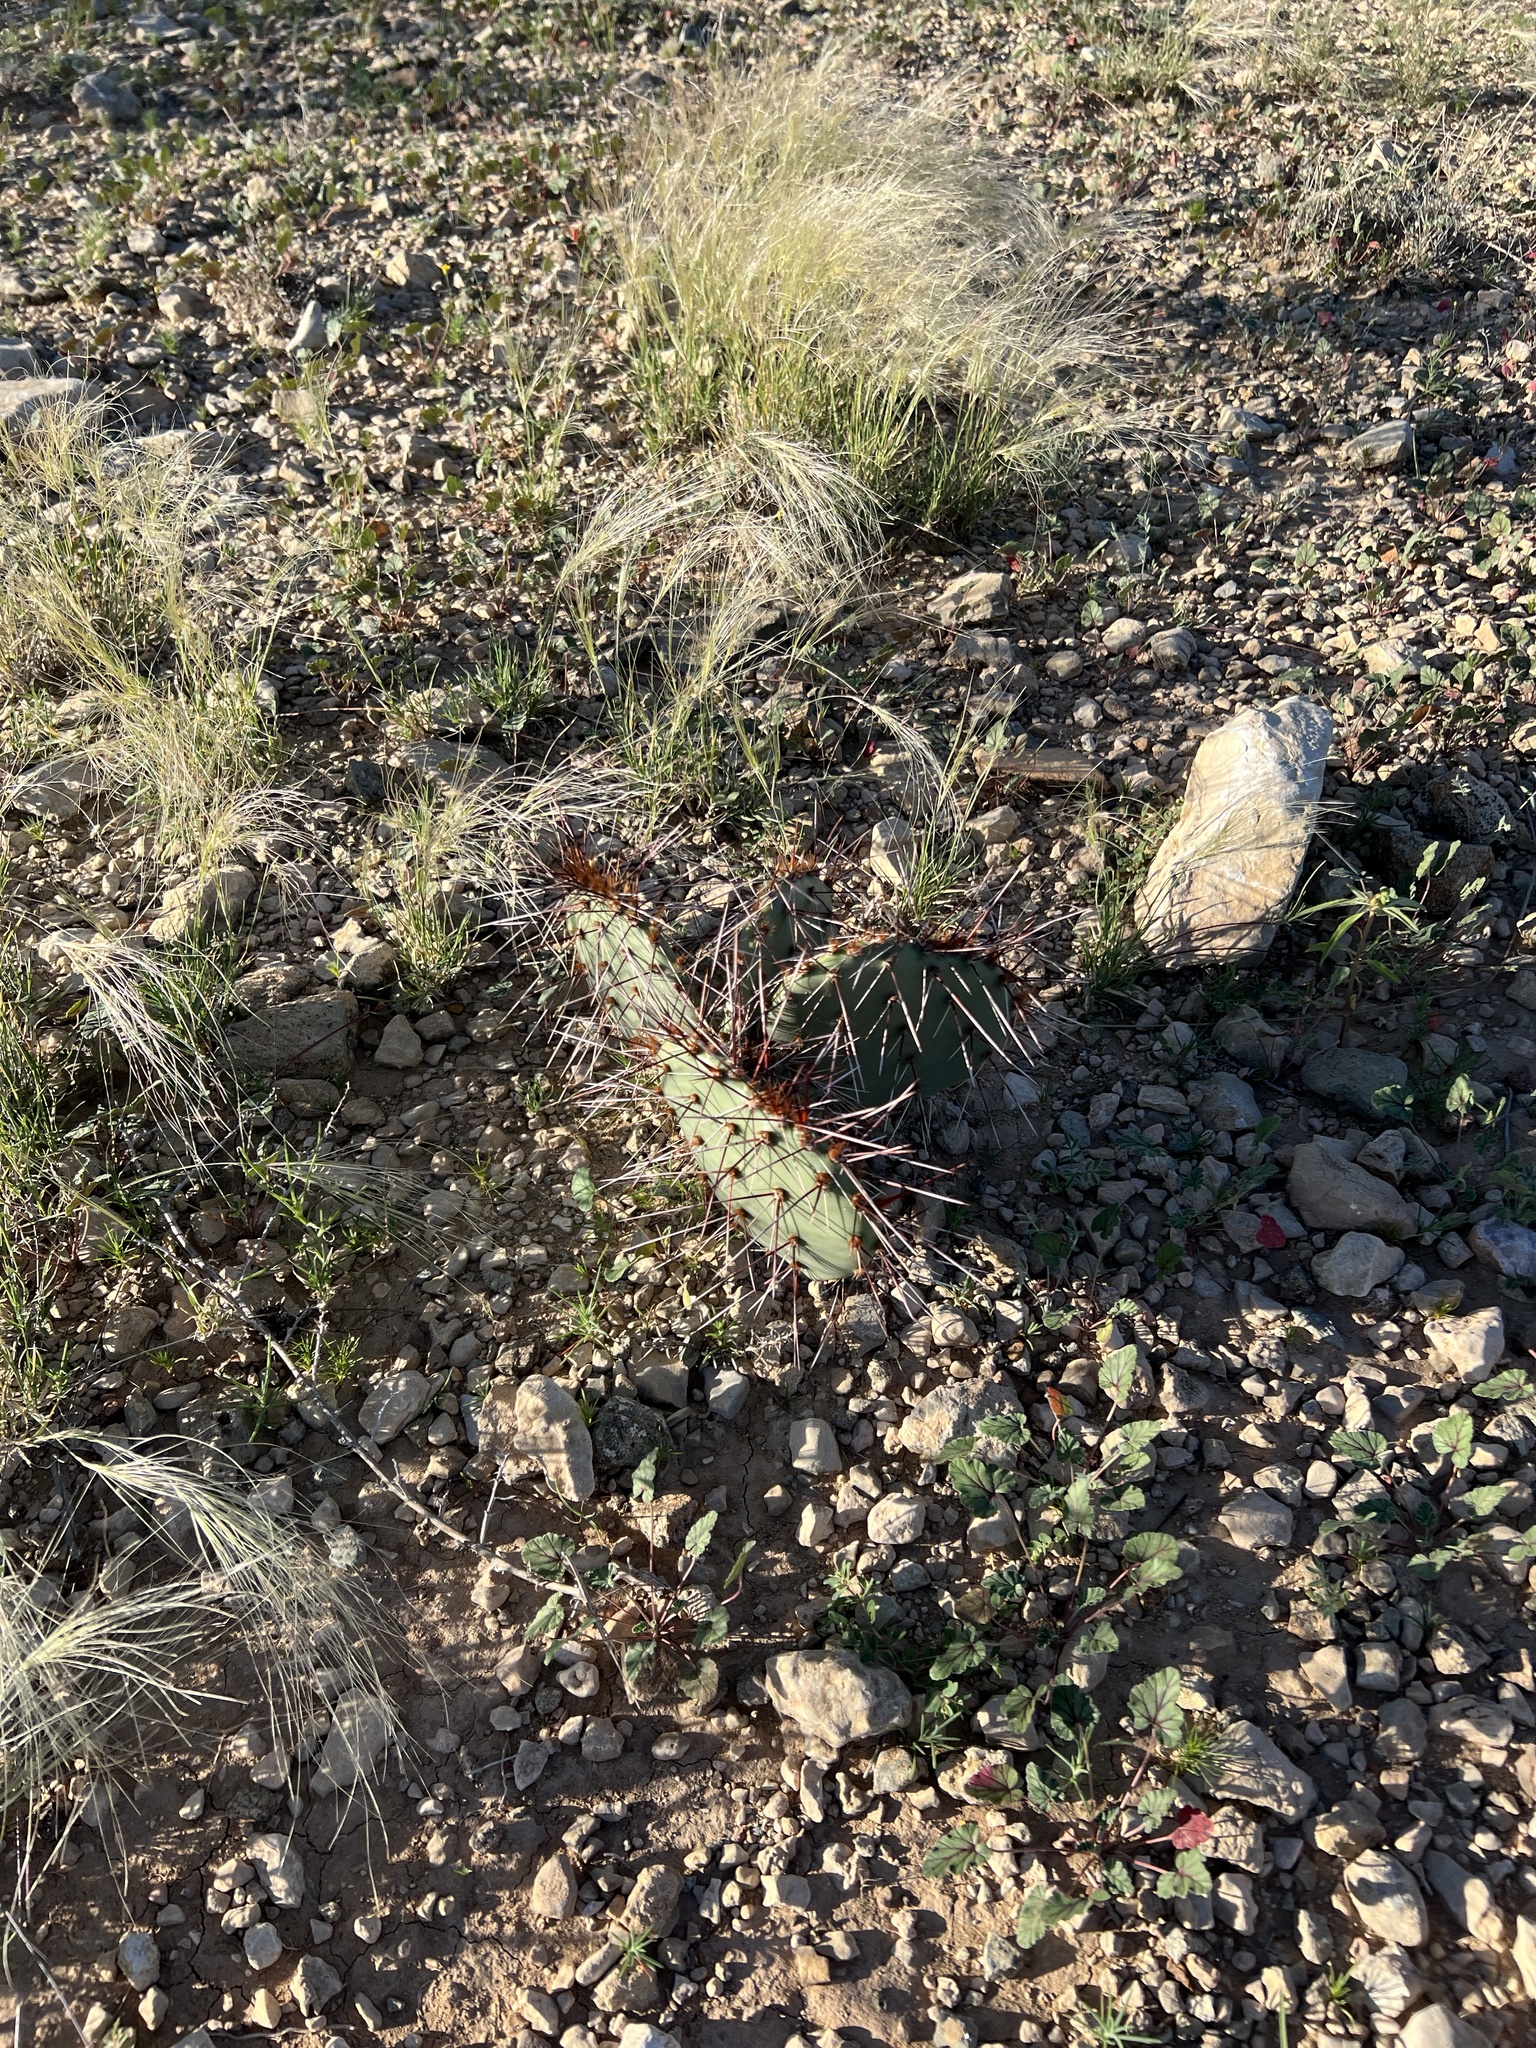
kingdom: Plantae
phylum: Tracheophyta
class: Magnoliopsida
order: Caryophyllales
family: Cactaceae
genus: Opuntia
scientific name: Opuntia macrorhiza
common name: Grassland pricklypear
